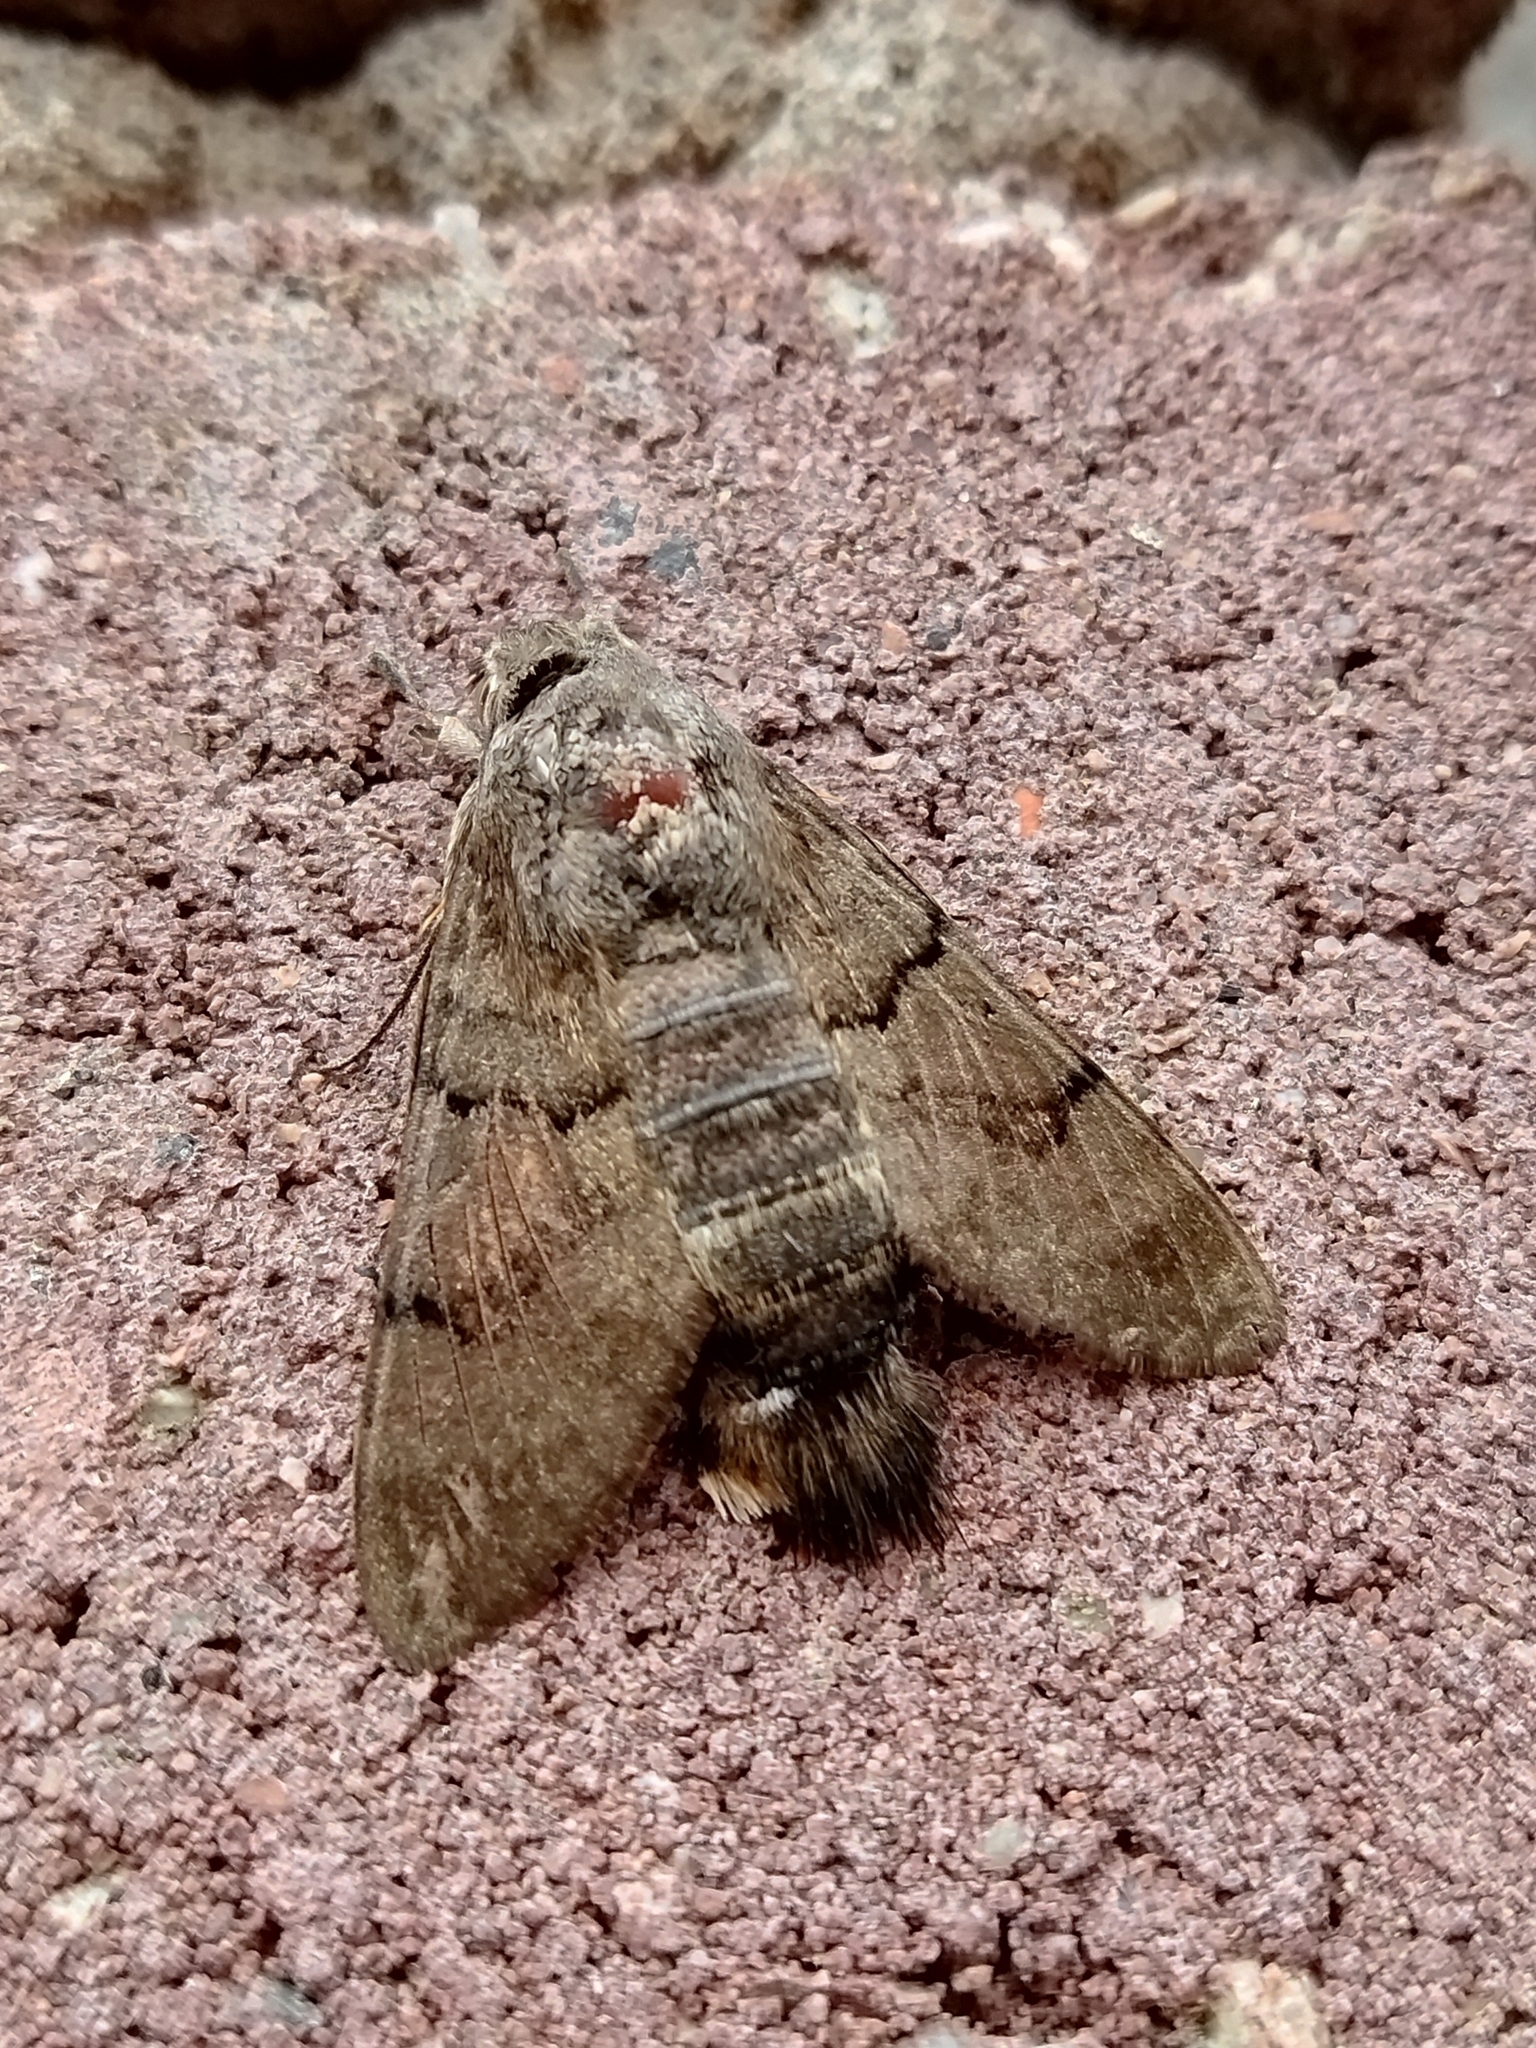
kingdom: Animalia
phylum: Arthropoda
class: Insecta
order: Lepidoptera
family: Sphingidae
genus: Macroglossum
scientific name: Macroglossum stellatarum
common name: Humming-bird hawk-moth
